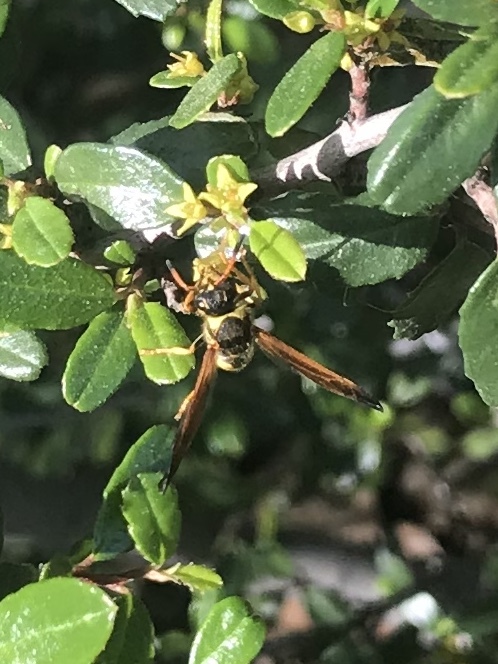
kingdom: Animalia
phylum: Arthropoda
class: Insecta
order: Hymenoptera
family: Eumenidae
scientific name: Eumenidae
